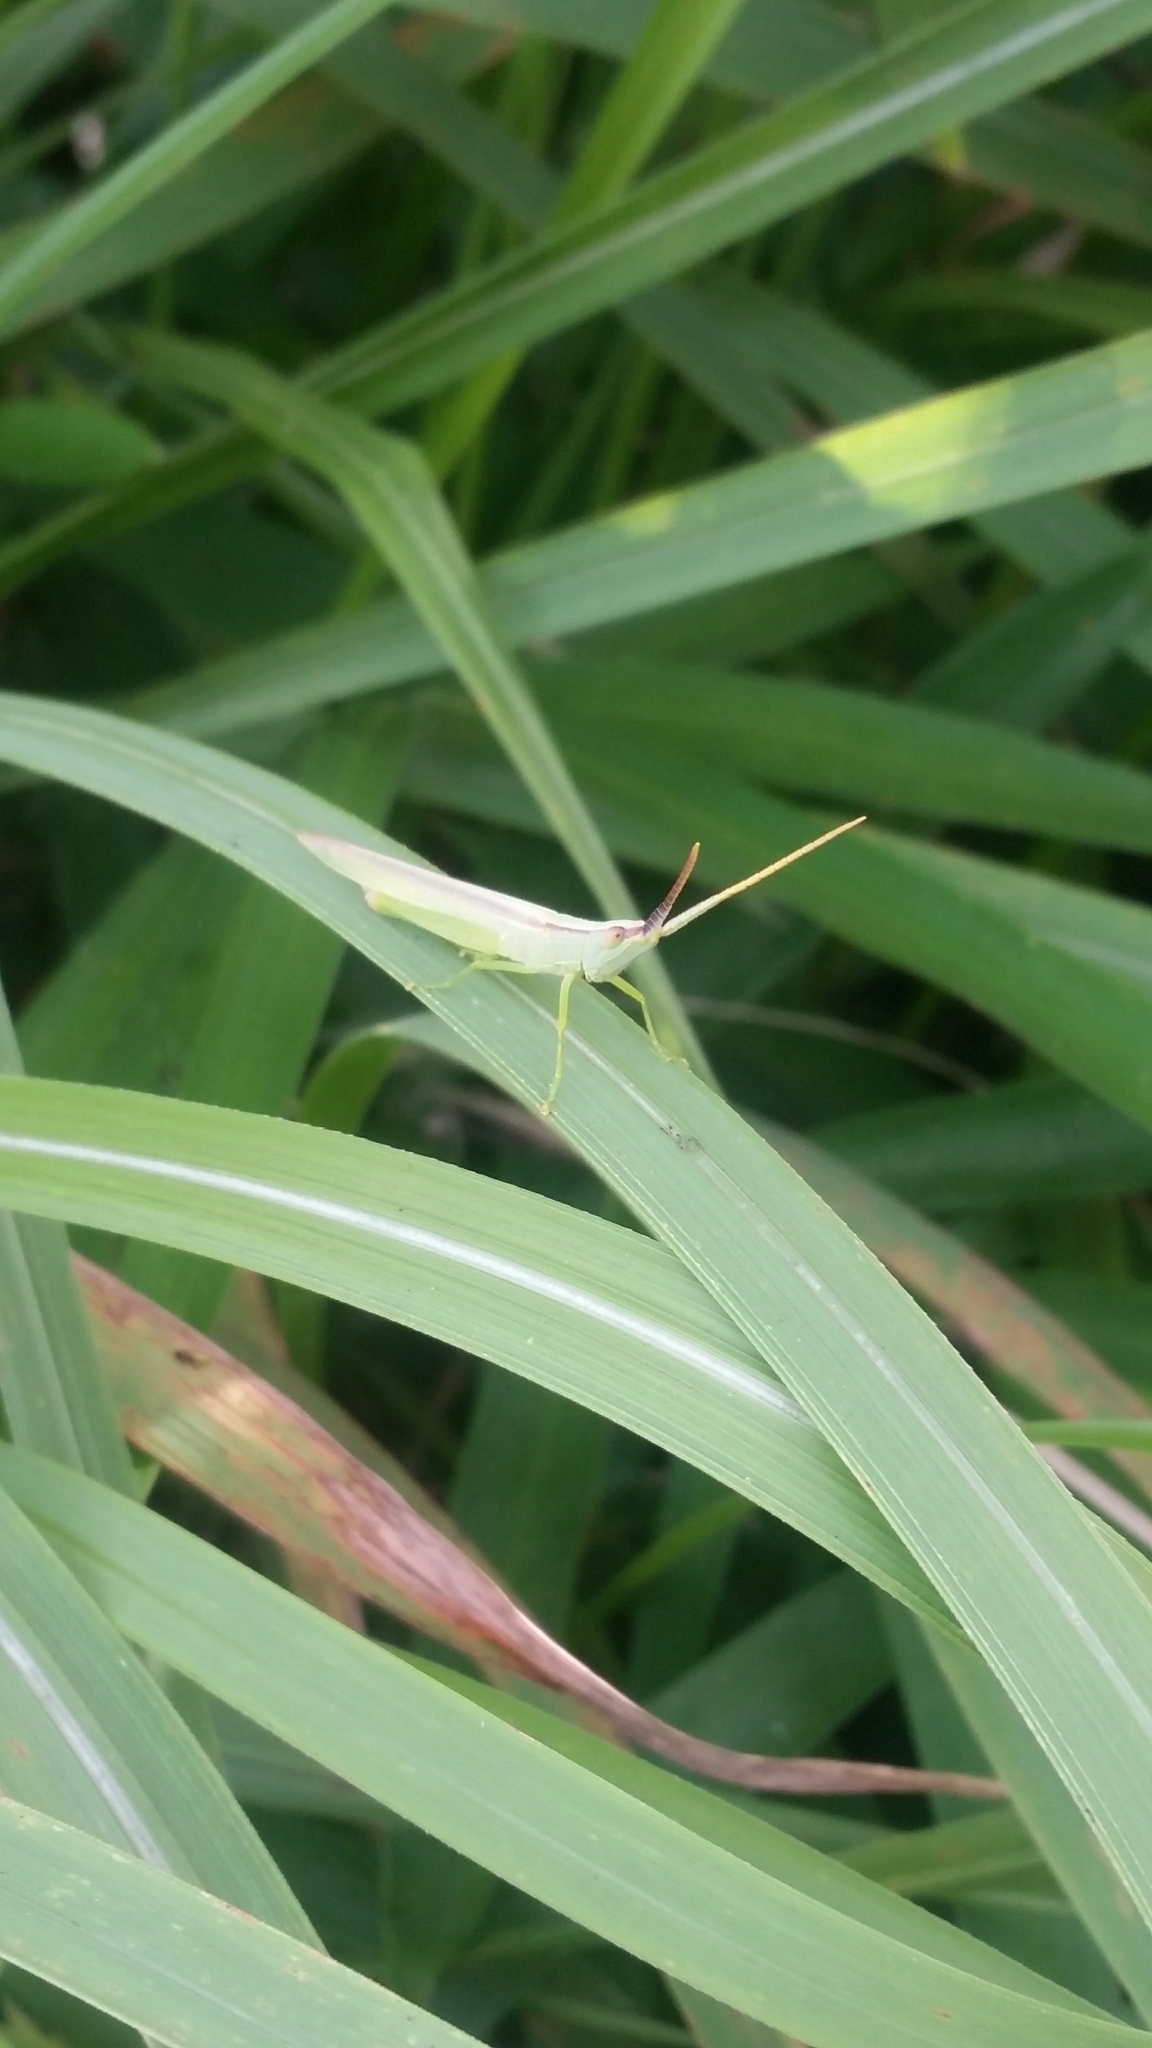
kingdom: Animalia
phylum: Arthropoda
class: Insecta
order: Orthoptera
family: Acrididae
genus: Gonista
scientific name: Gonista bicolor
